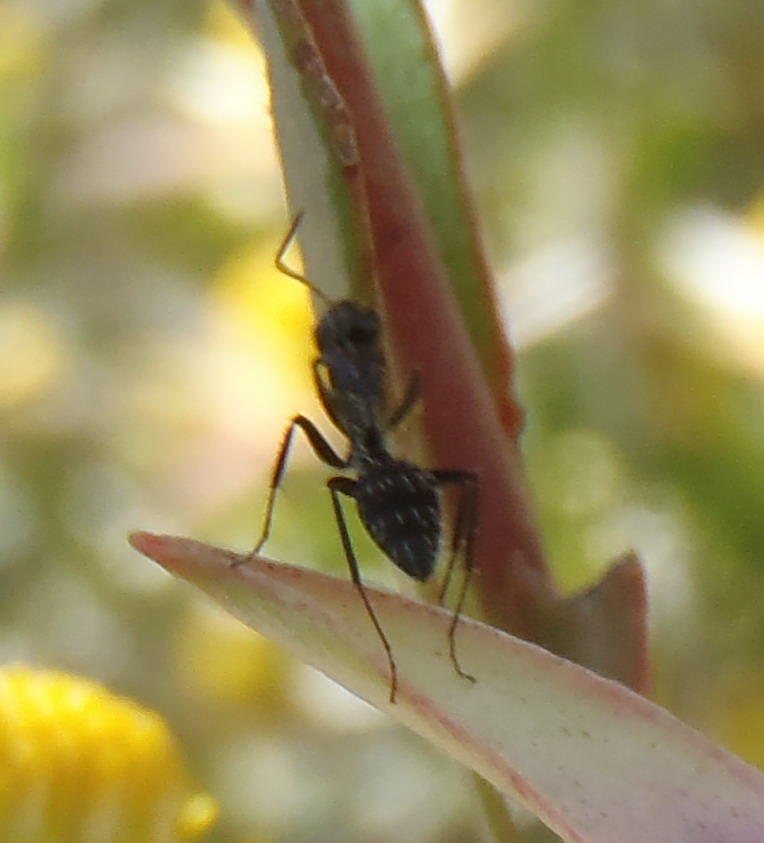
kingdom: Animalia
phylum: Arthropoda
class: Insecta
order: Hymenoptera
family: Formicidae
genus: Camponotus
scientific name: Camponotus niveosetosus
